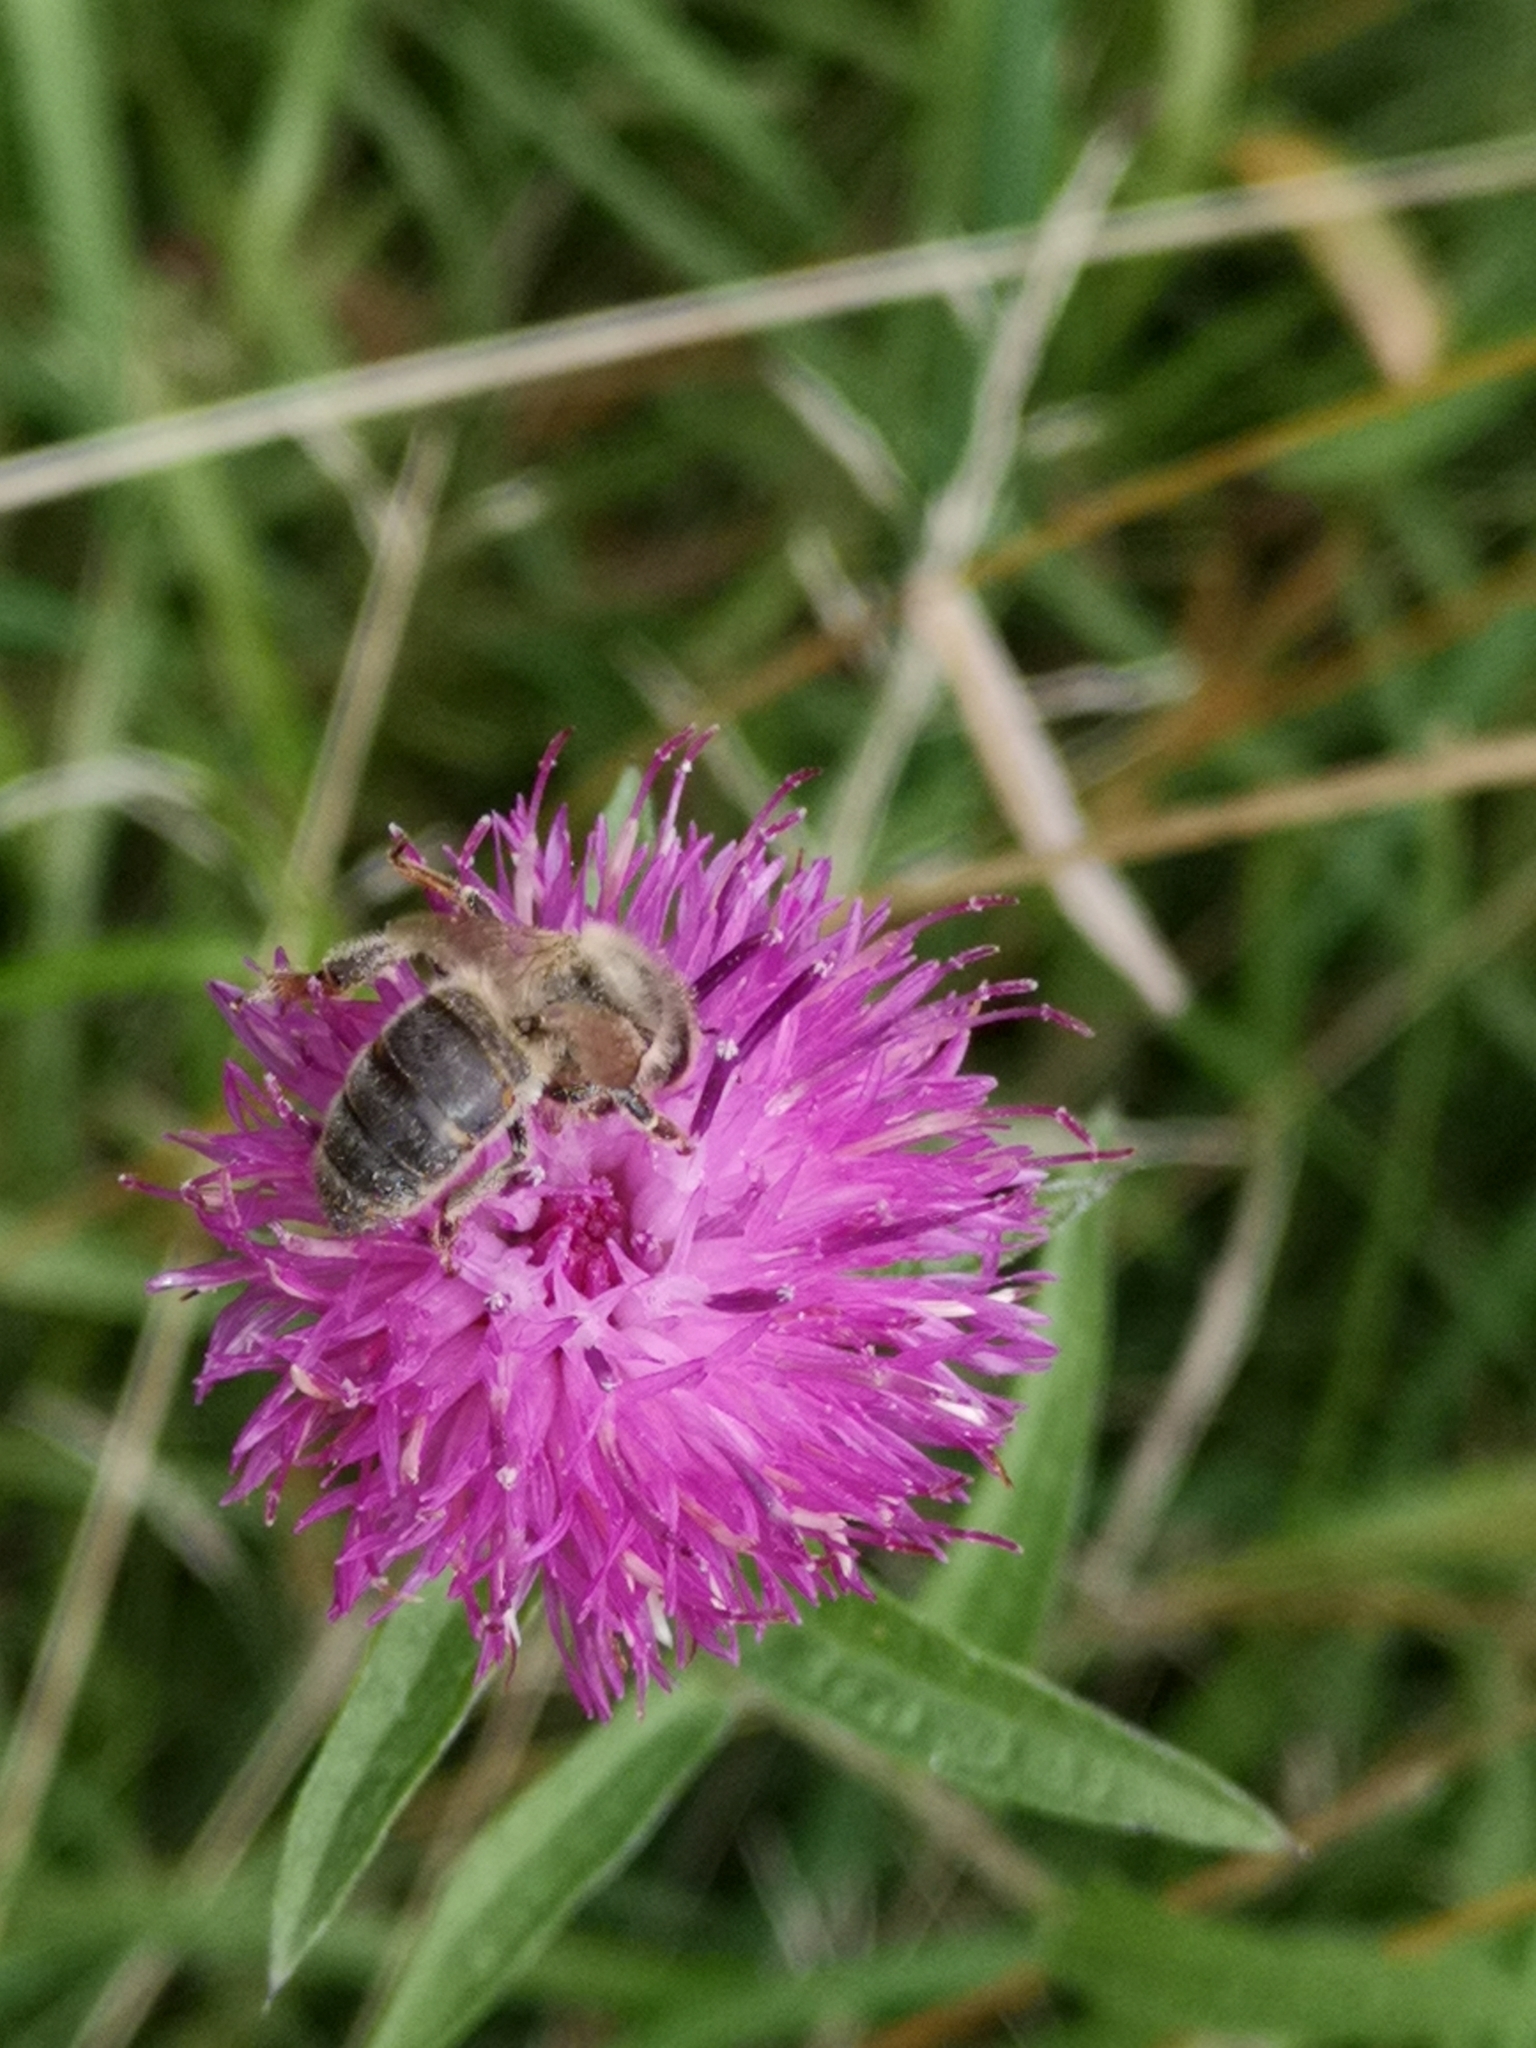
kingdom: Animalia
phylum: Arthropoda
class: Insecta
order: Hymenoptera
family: Apidae
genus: Apis
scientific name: Apis mellifera
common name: Honey bee
